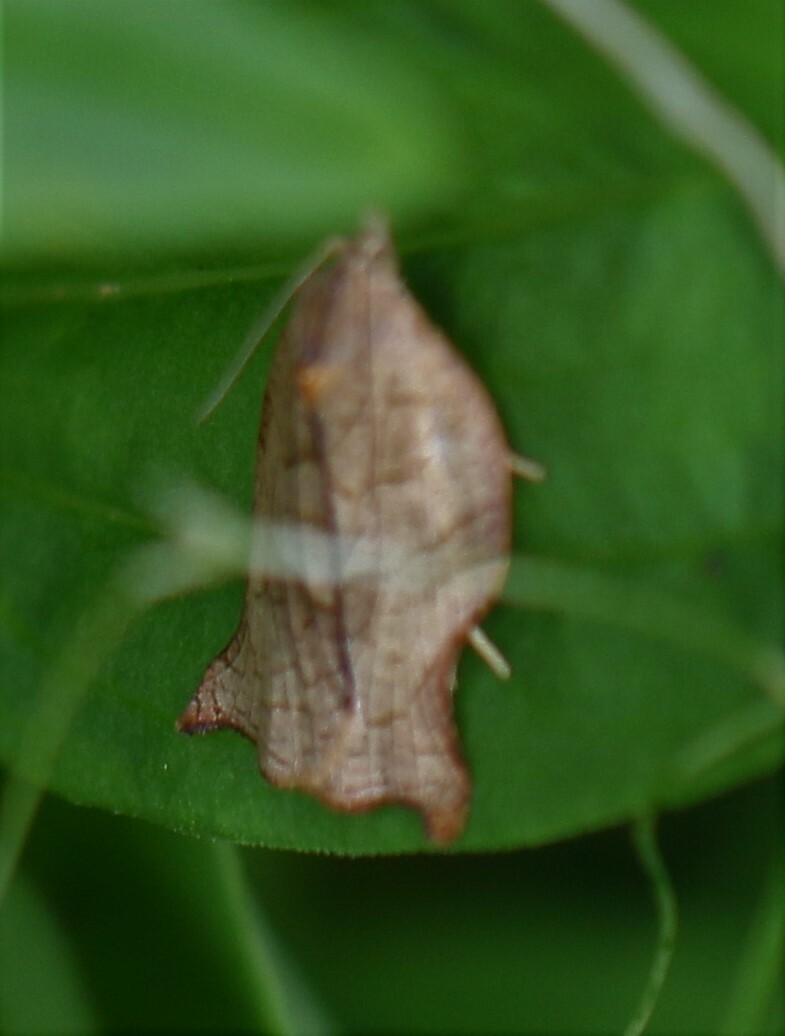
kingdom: Animalia
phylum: Arthropoda
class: Insecta
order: Lepidoptera
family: Tortricidae
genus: Archips
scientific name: Archips purpurana
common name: Omnivorous leafroller
